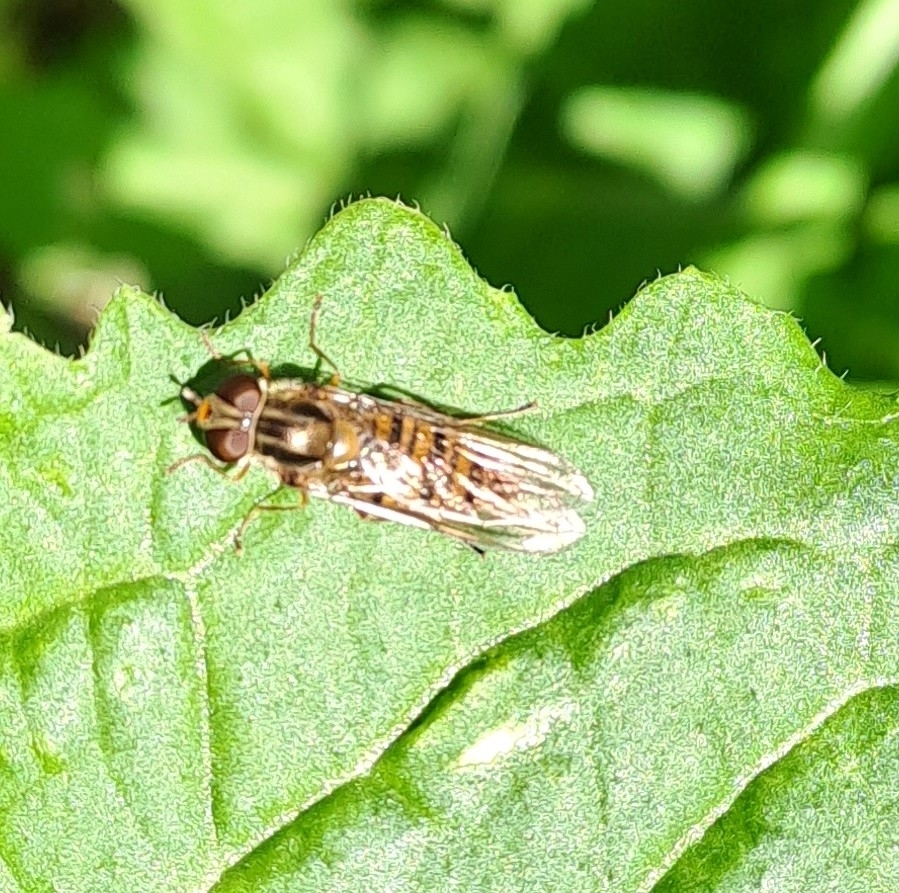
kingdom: Animalia
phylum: Arthropoda
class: Insecta
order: Diptera
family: Syrphidae
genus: Episyrphus
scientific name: Episyrphus balteatus
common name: Marmalade hoverfly
